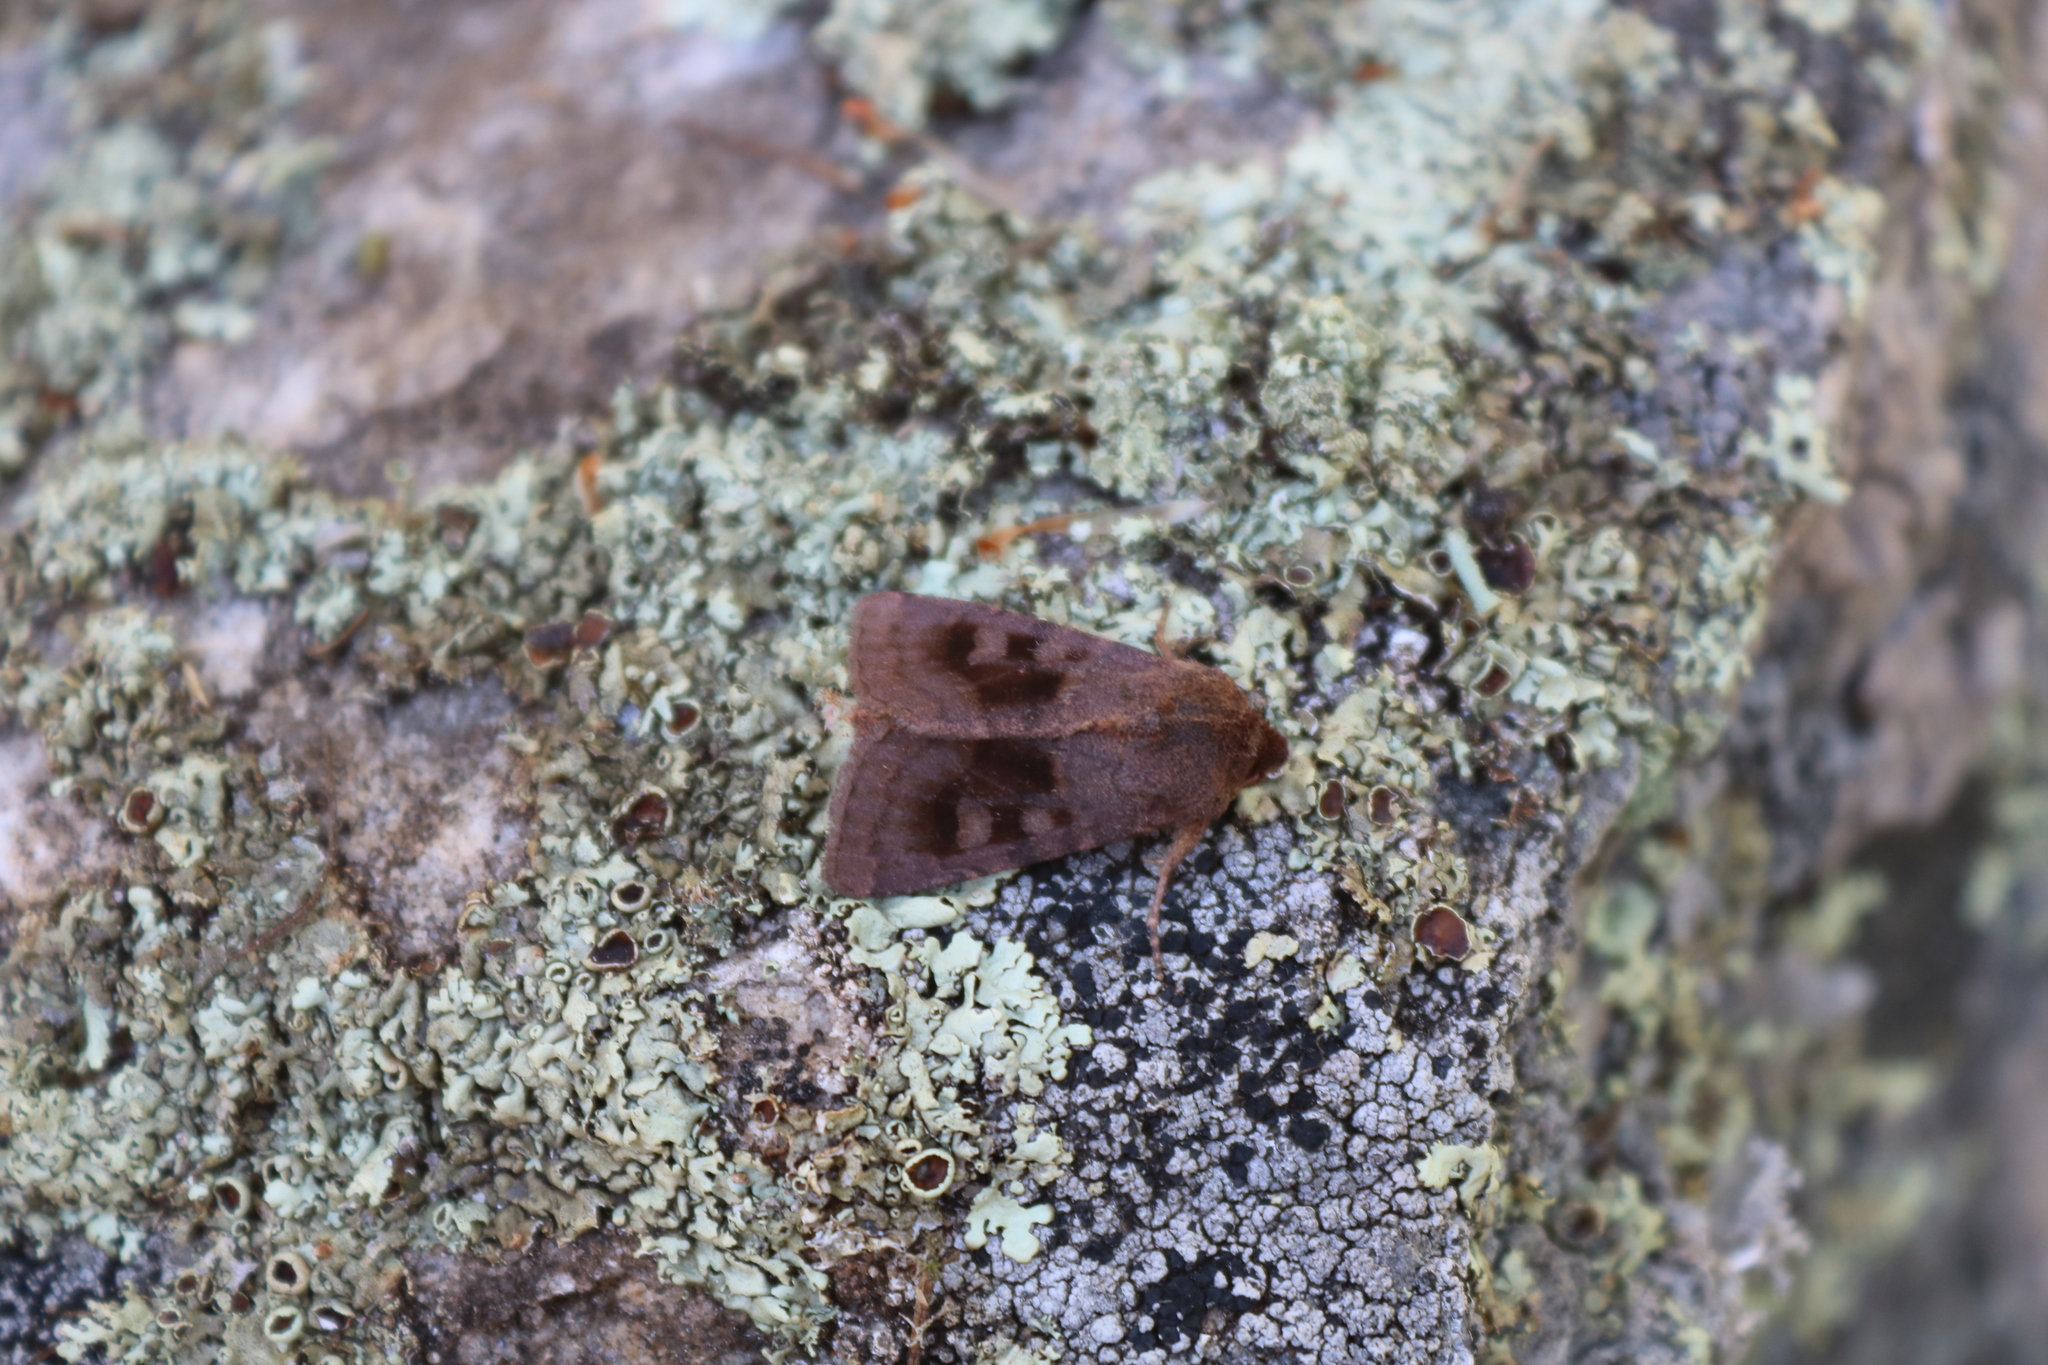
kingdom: Animalia
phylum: Arthropoda
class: Insecta
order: Lepidoptera
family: Noctuidae
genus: Nephelodes
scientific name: Nephelodes minians
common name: Bronzed cutworm
